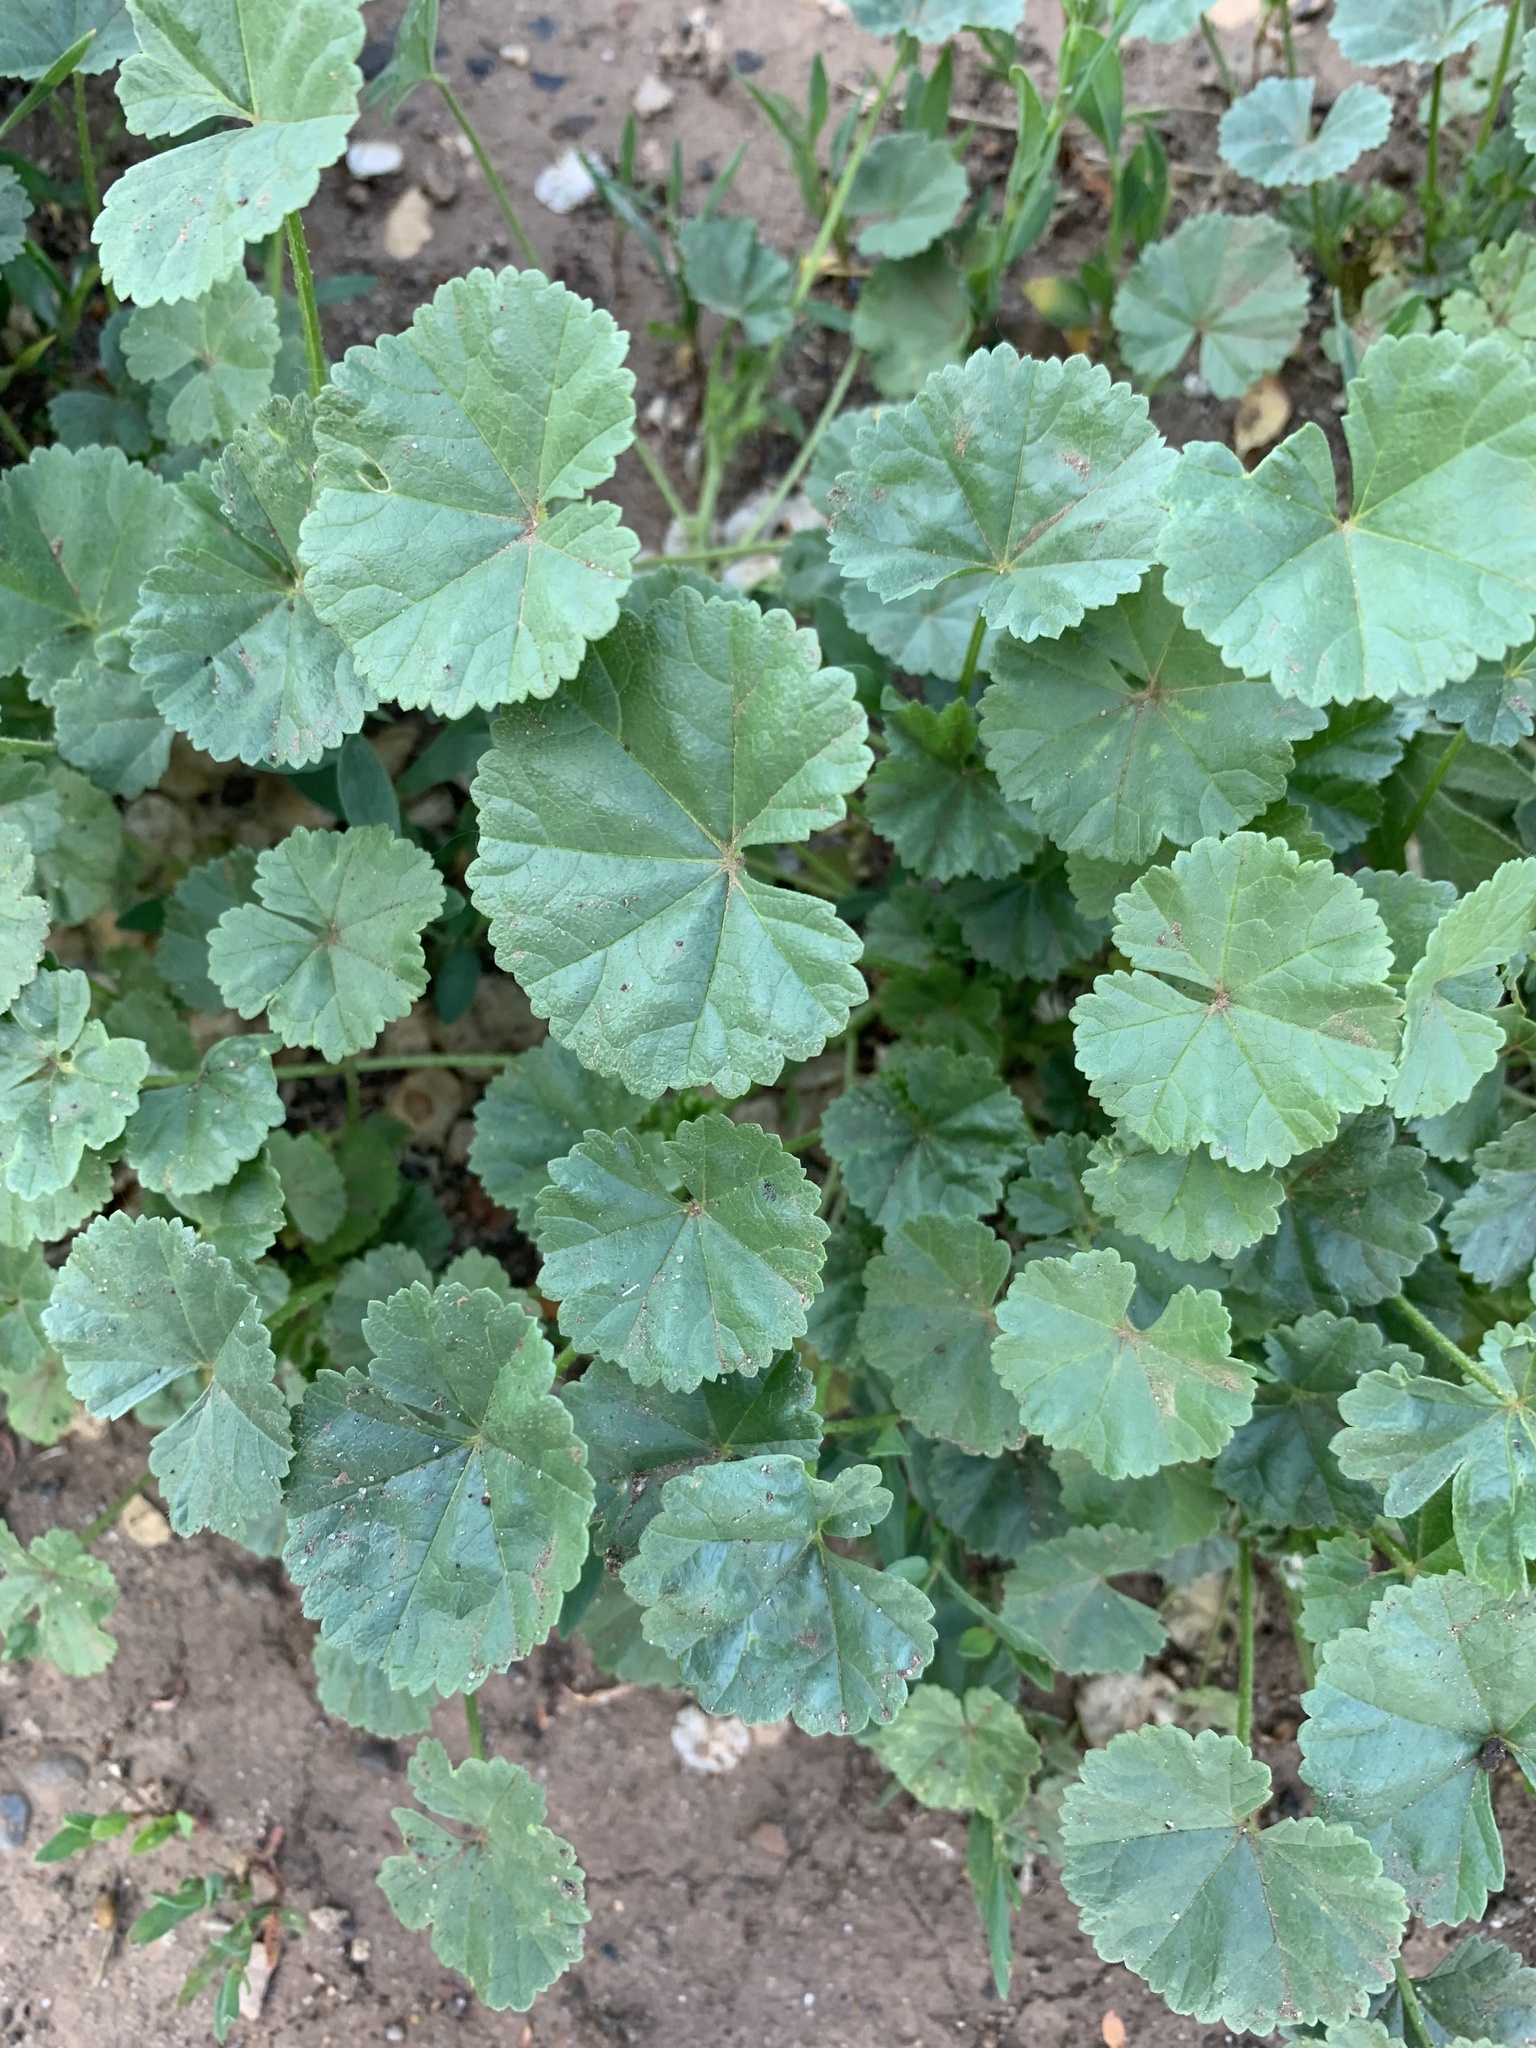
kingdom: Plantae
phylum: Tracheophyta
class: Magnoliopsida
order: Malvales
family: Malvaceae
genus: Malva
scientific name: Malva pusilla
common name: Small mallow
